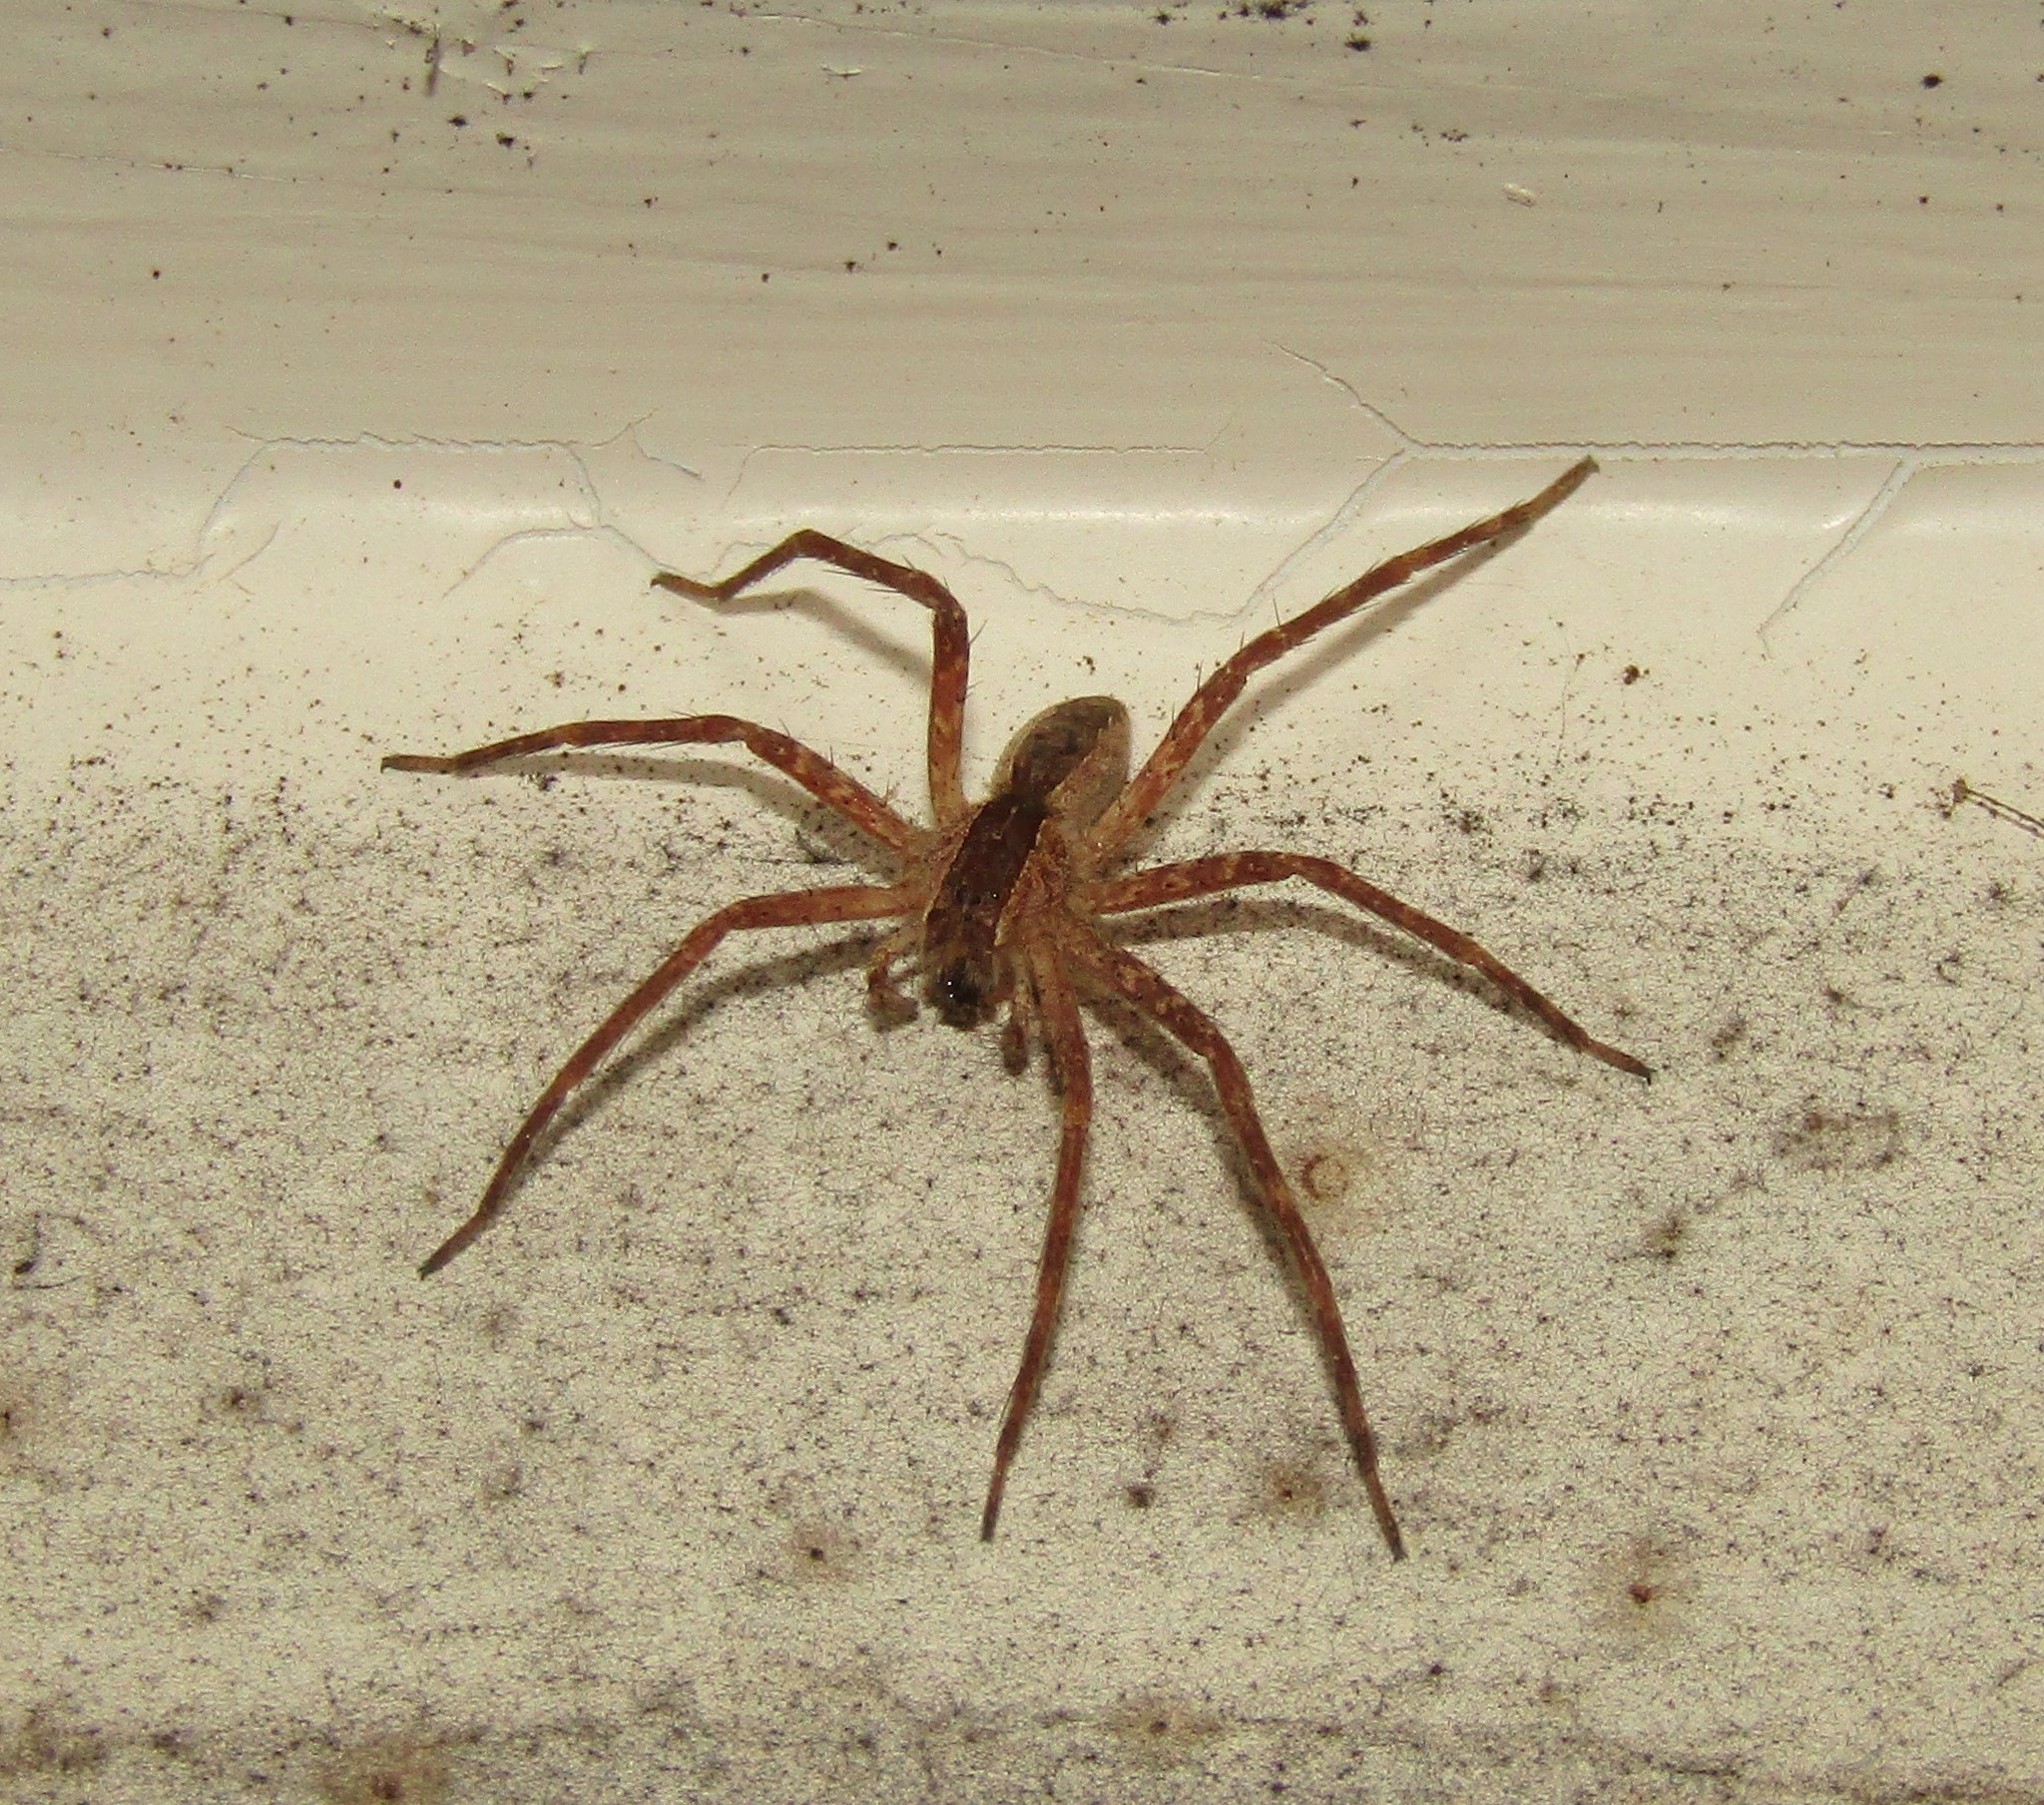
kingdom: Animalia
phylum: Arthropoda
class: Arachnida
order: Araneae
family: Pisauridae
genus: Pisaurina
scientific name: Pisaurina mira
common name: American nursery web spider
